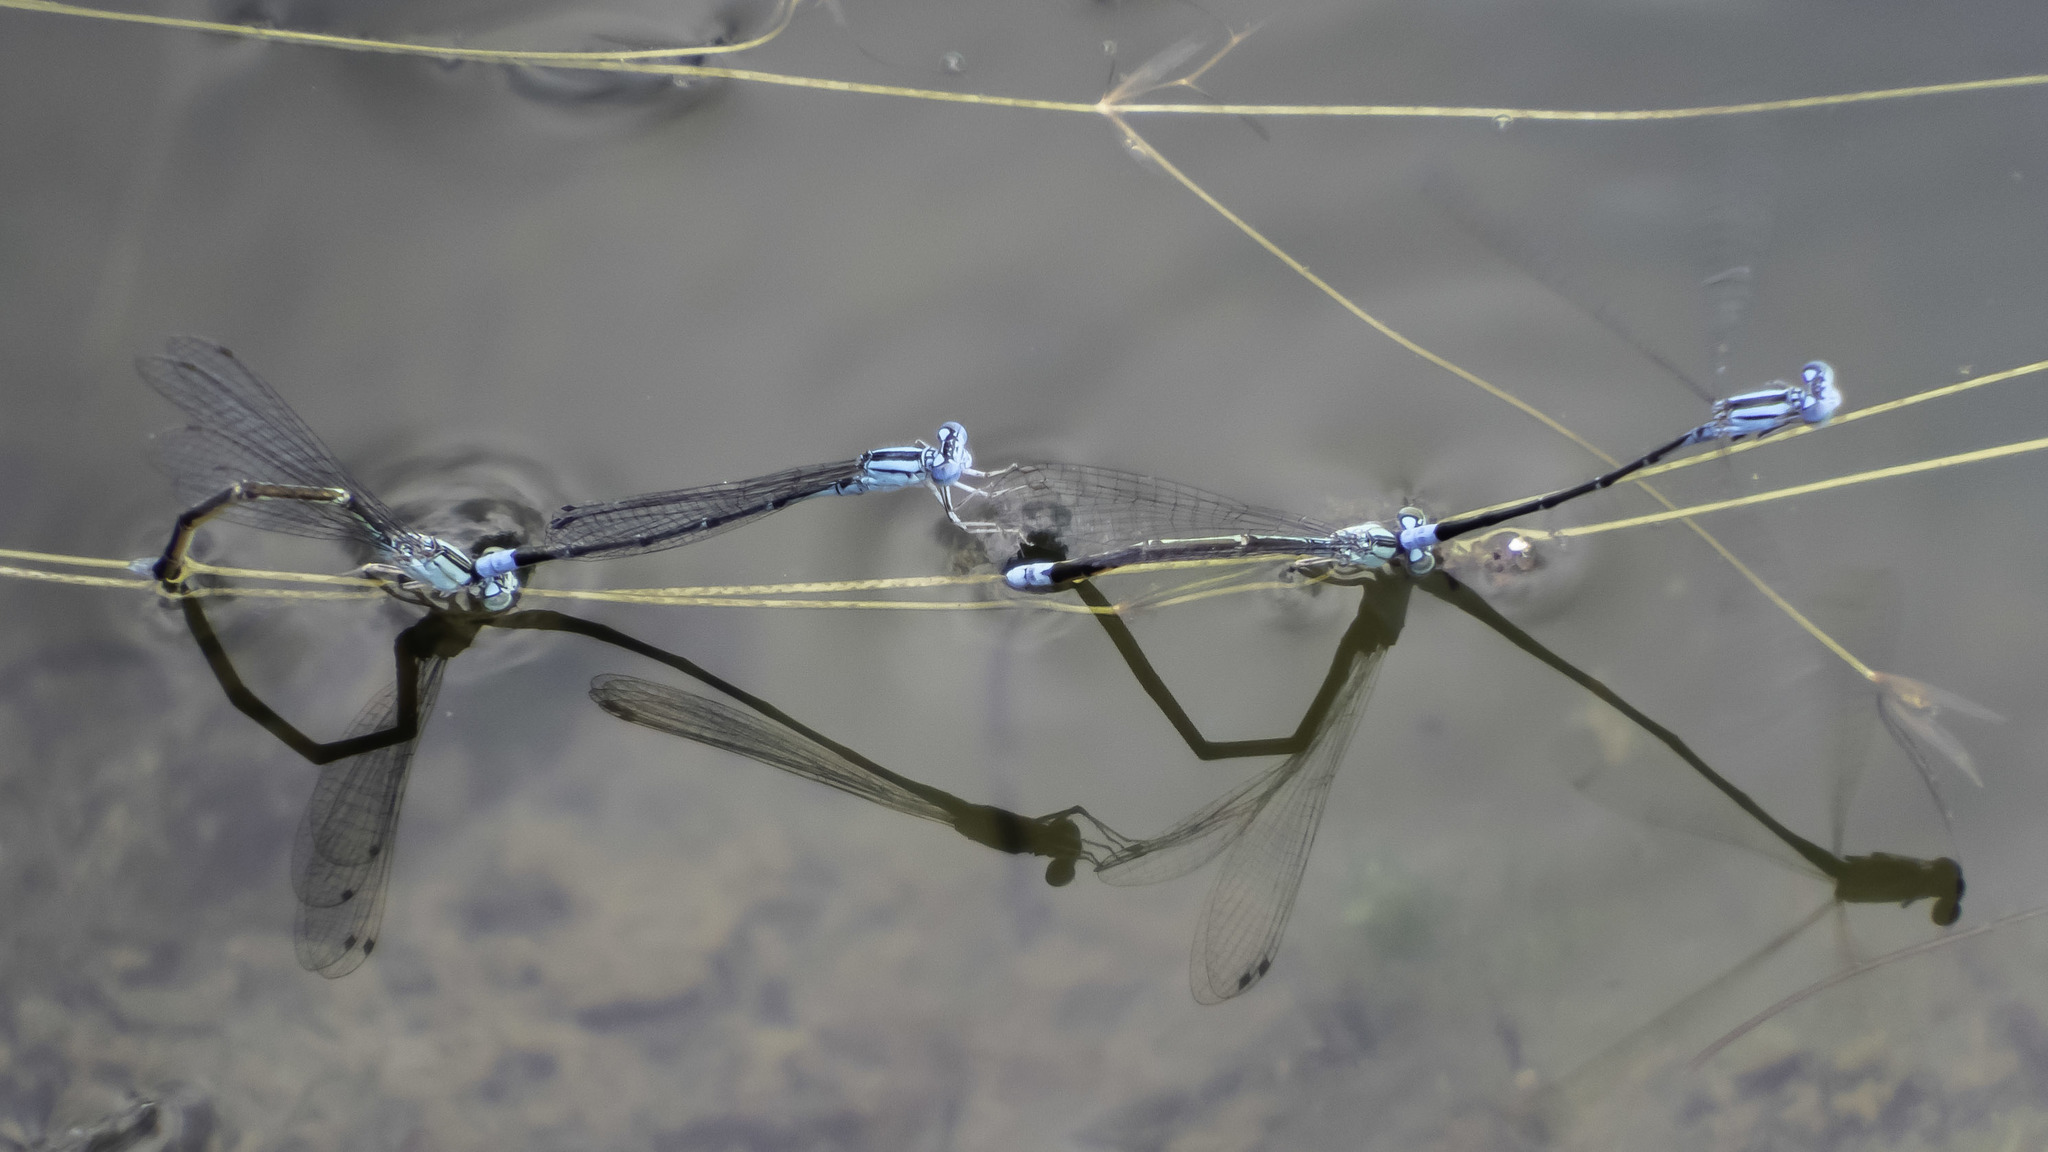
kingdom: Animalia
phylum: Arthropoda
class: Insecta
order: Odonata
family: Coenagrionidae
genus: Enallagma
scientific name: Enallagma traviatum
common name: Slender bluet
